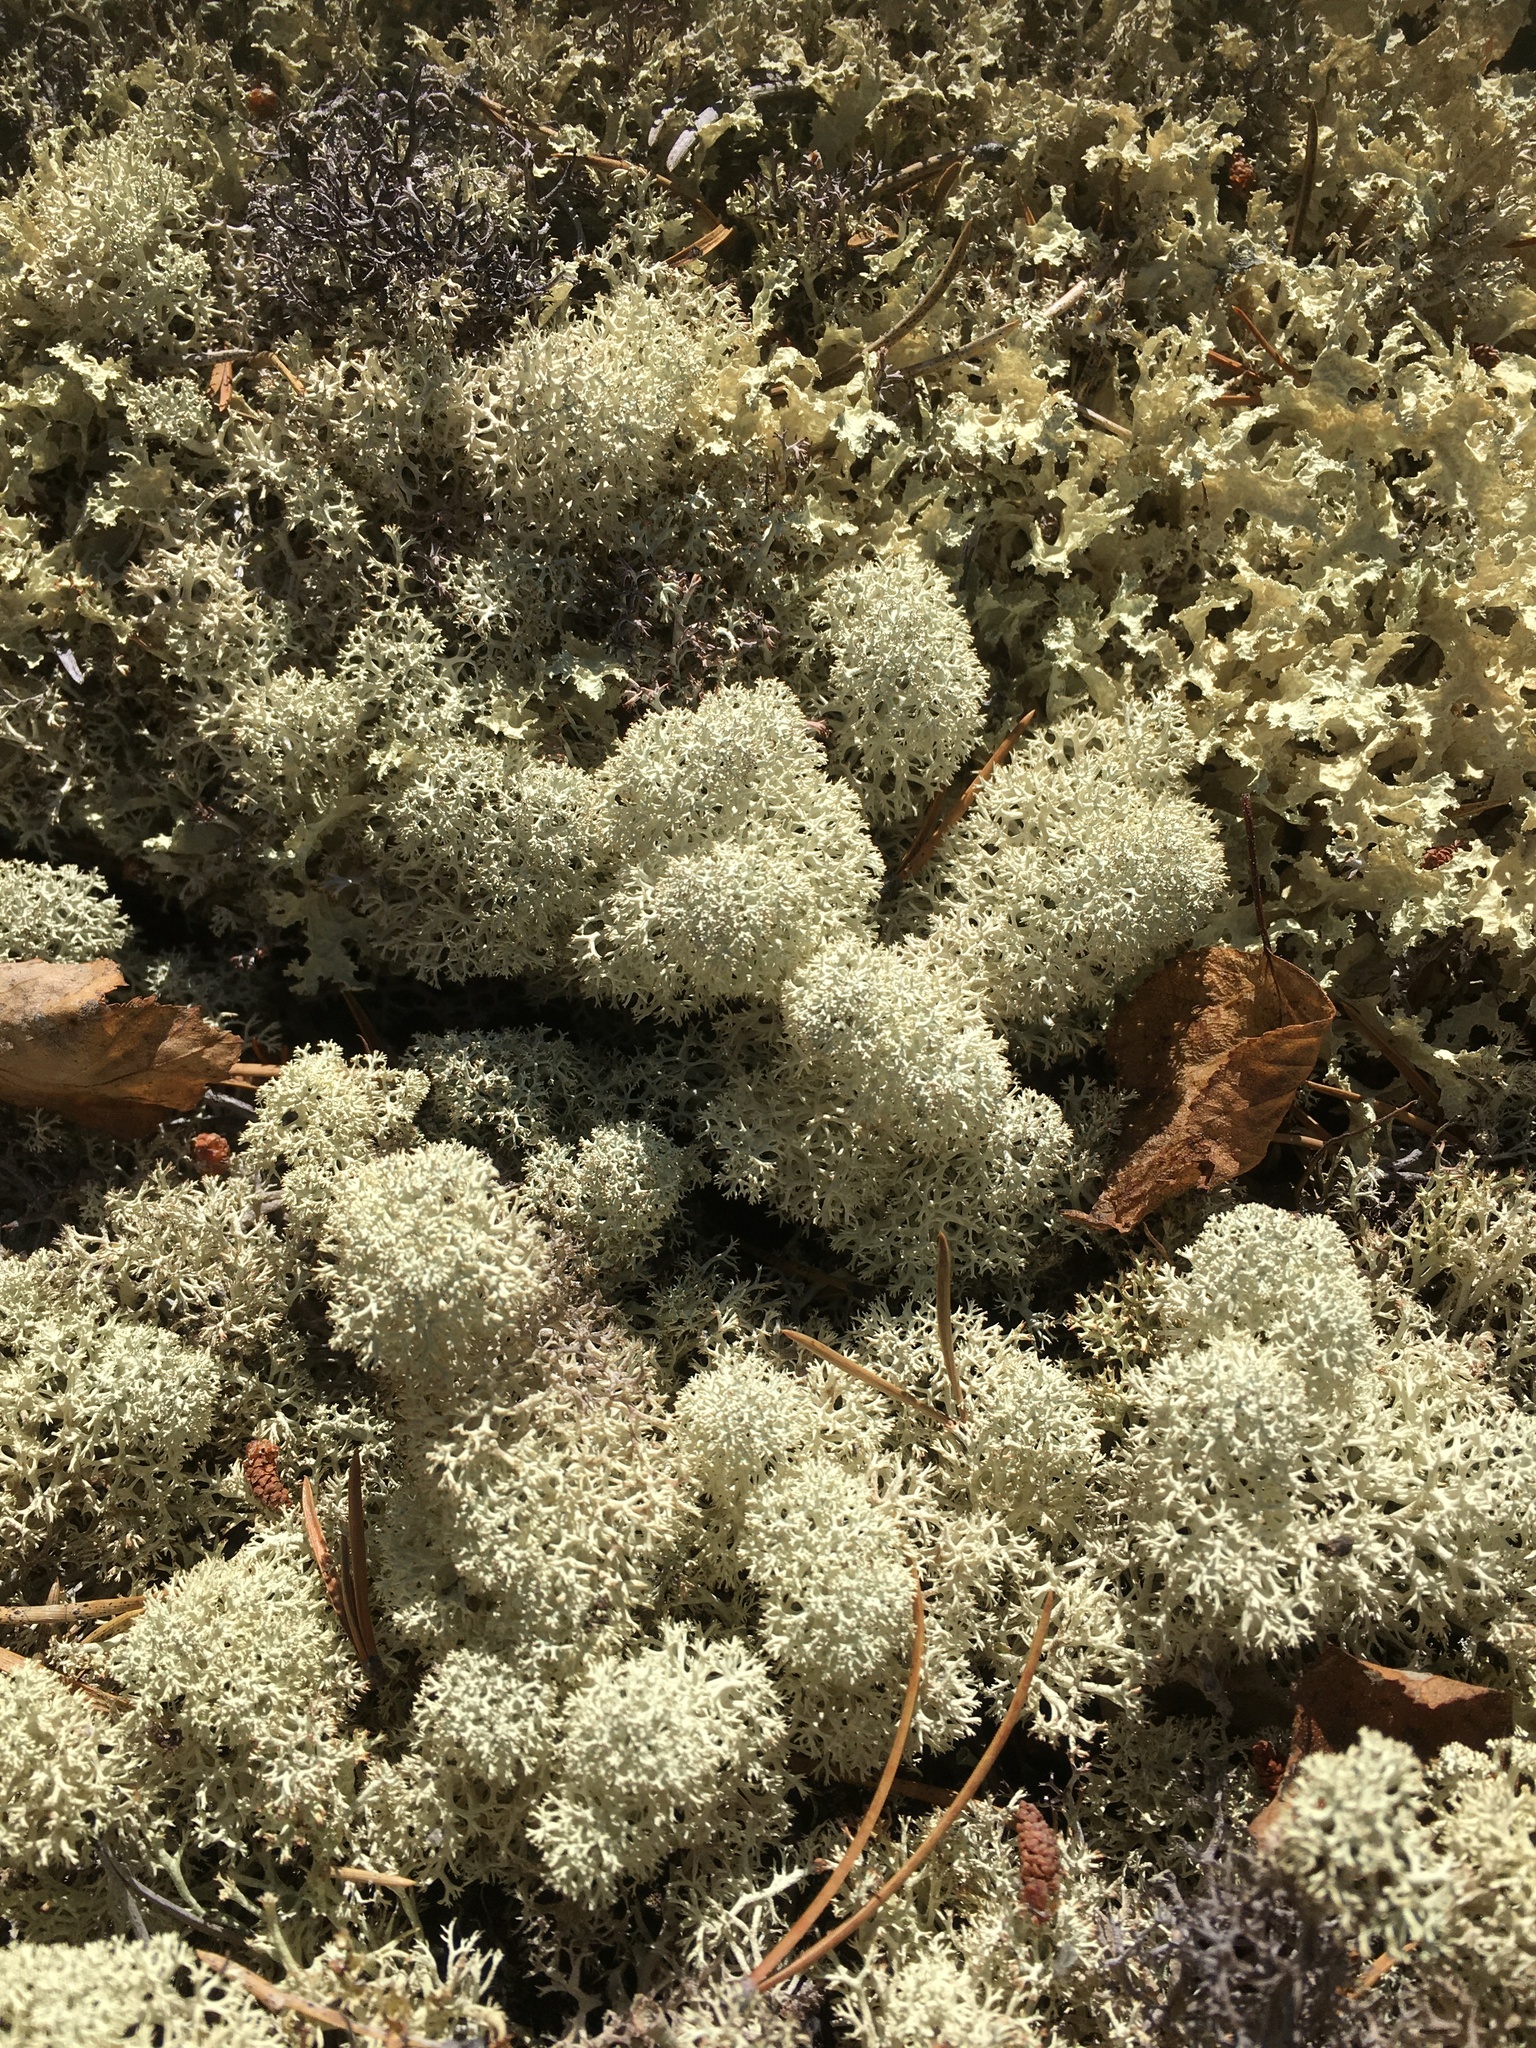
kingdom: Fungi
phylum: Ascomycota
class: Lecanoromycetes
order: Lecanorales
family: Cladoniaceae
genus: Cladonia
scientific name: Cladonia stellaris
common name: Star-tipped reindeer lichen
